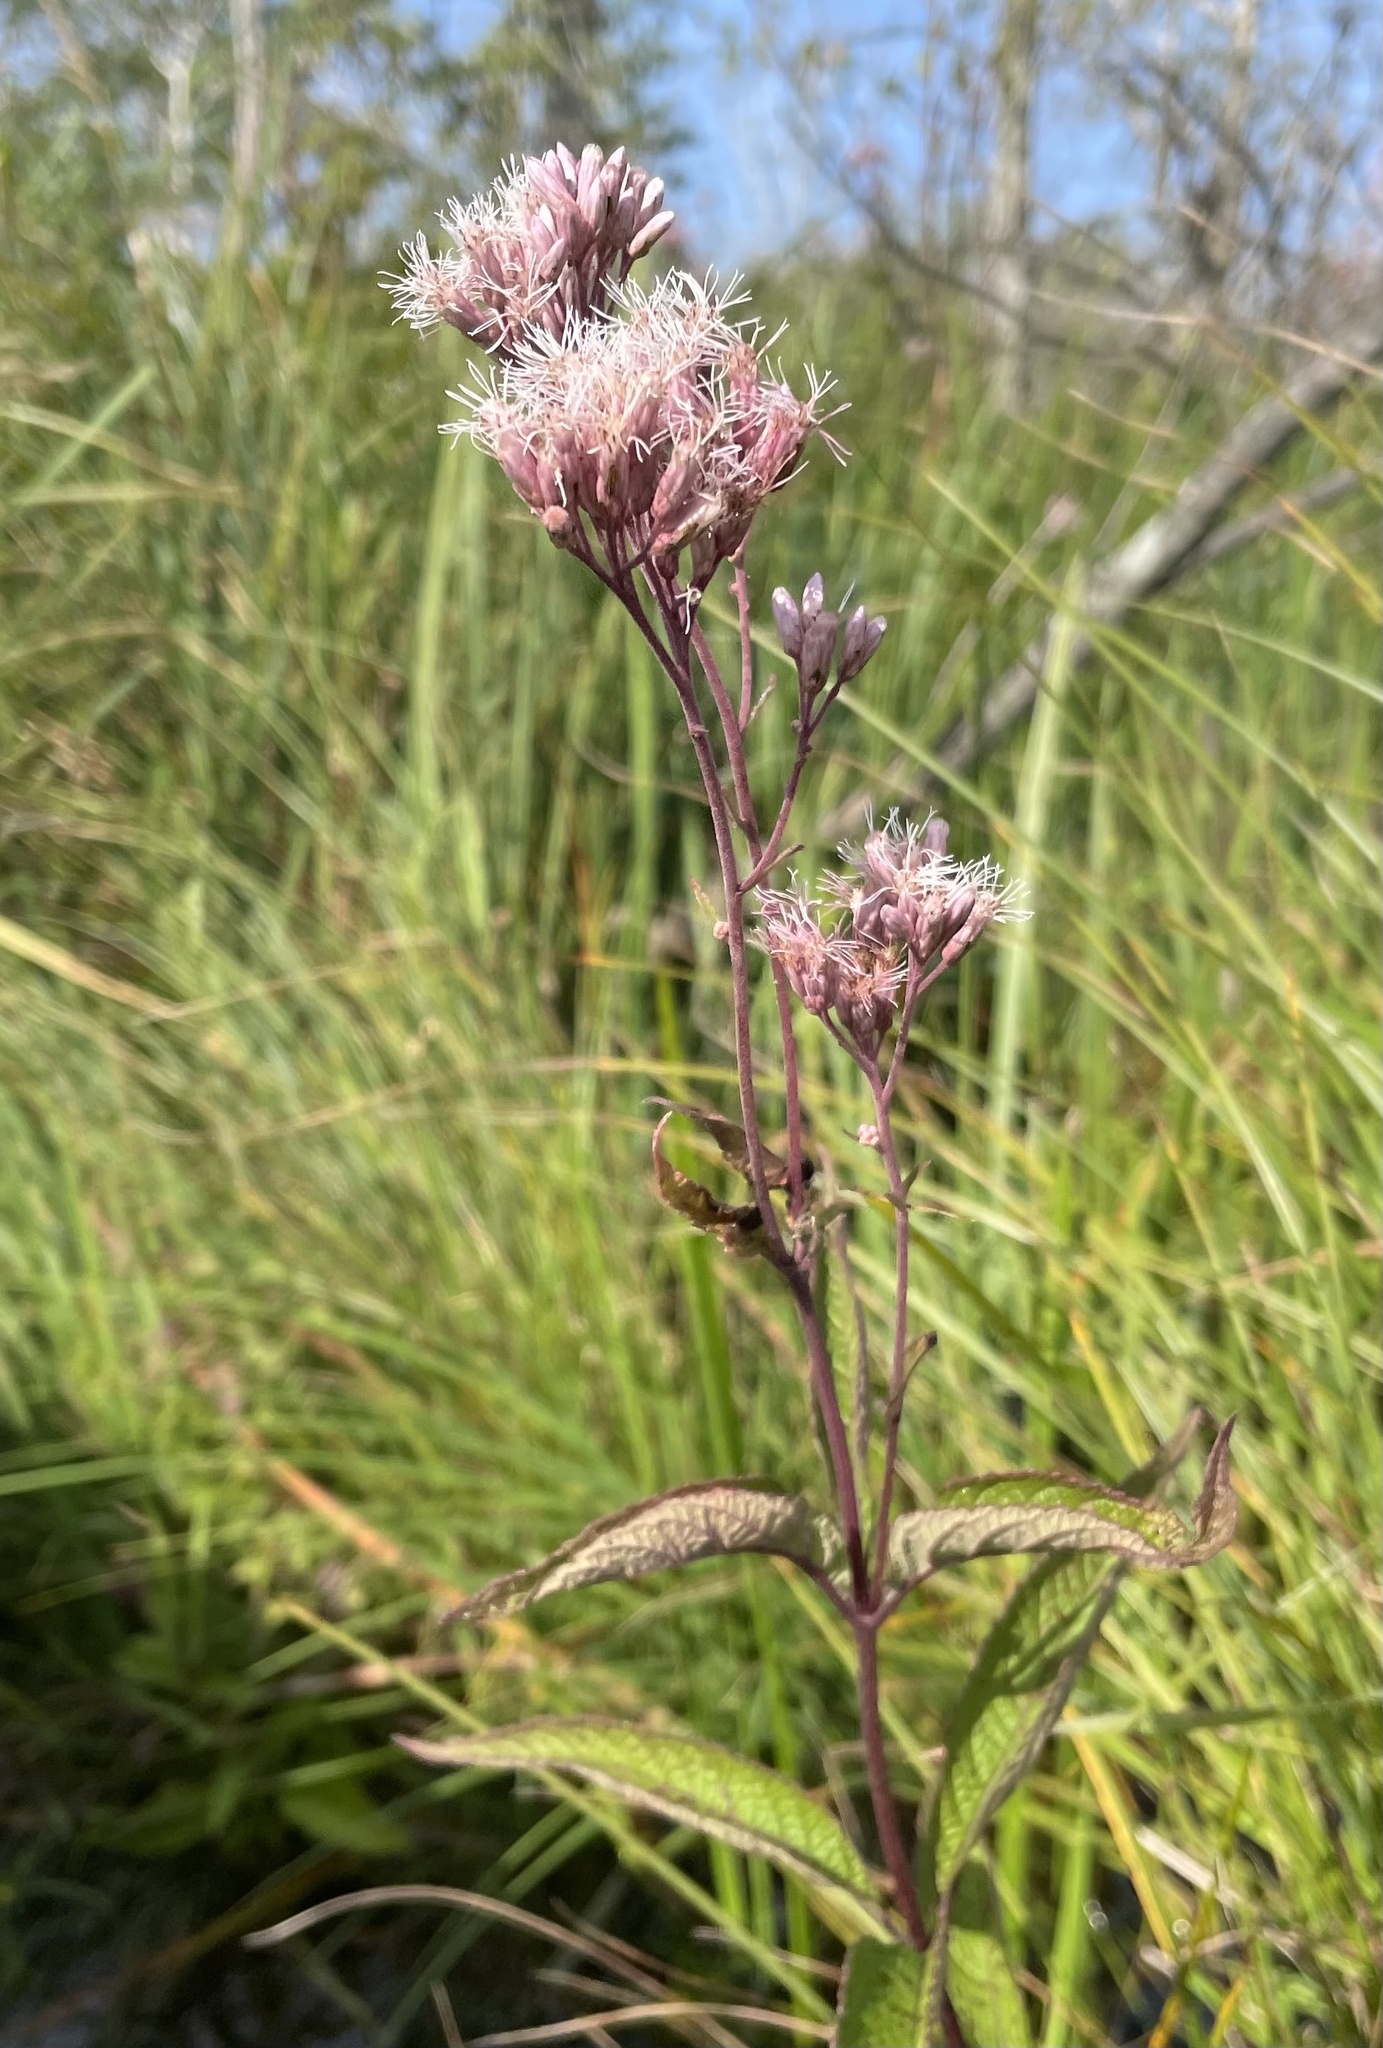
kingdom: Plantae
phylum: Tracheophyta
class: Magnoliopsida
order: Asterales
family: Asteraceae
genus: Eutrochium
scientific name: Eutrochium maculatum
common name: Spotted joe pye weed
